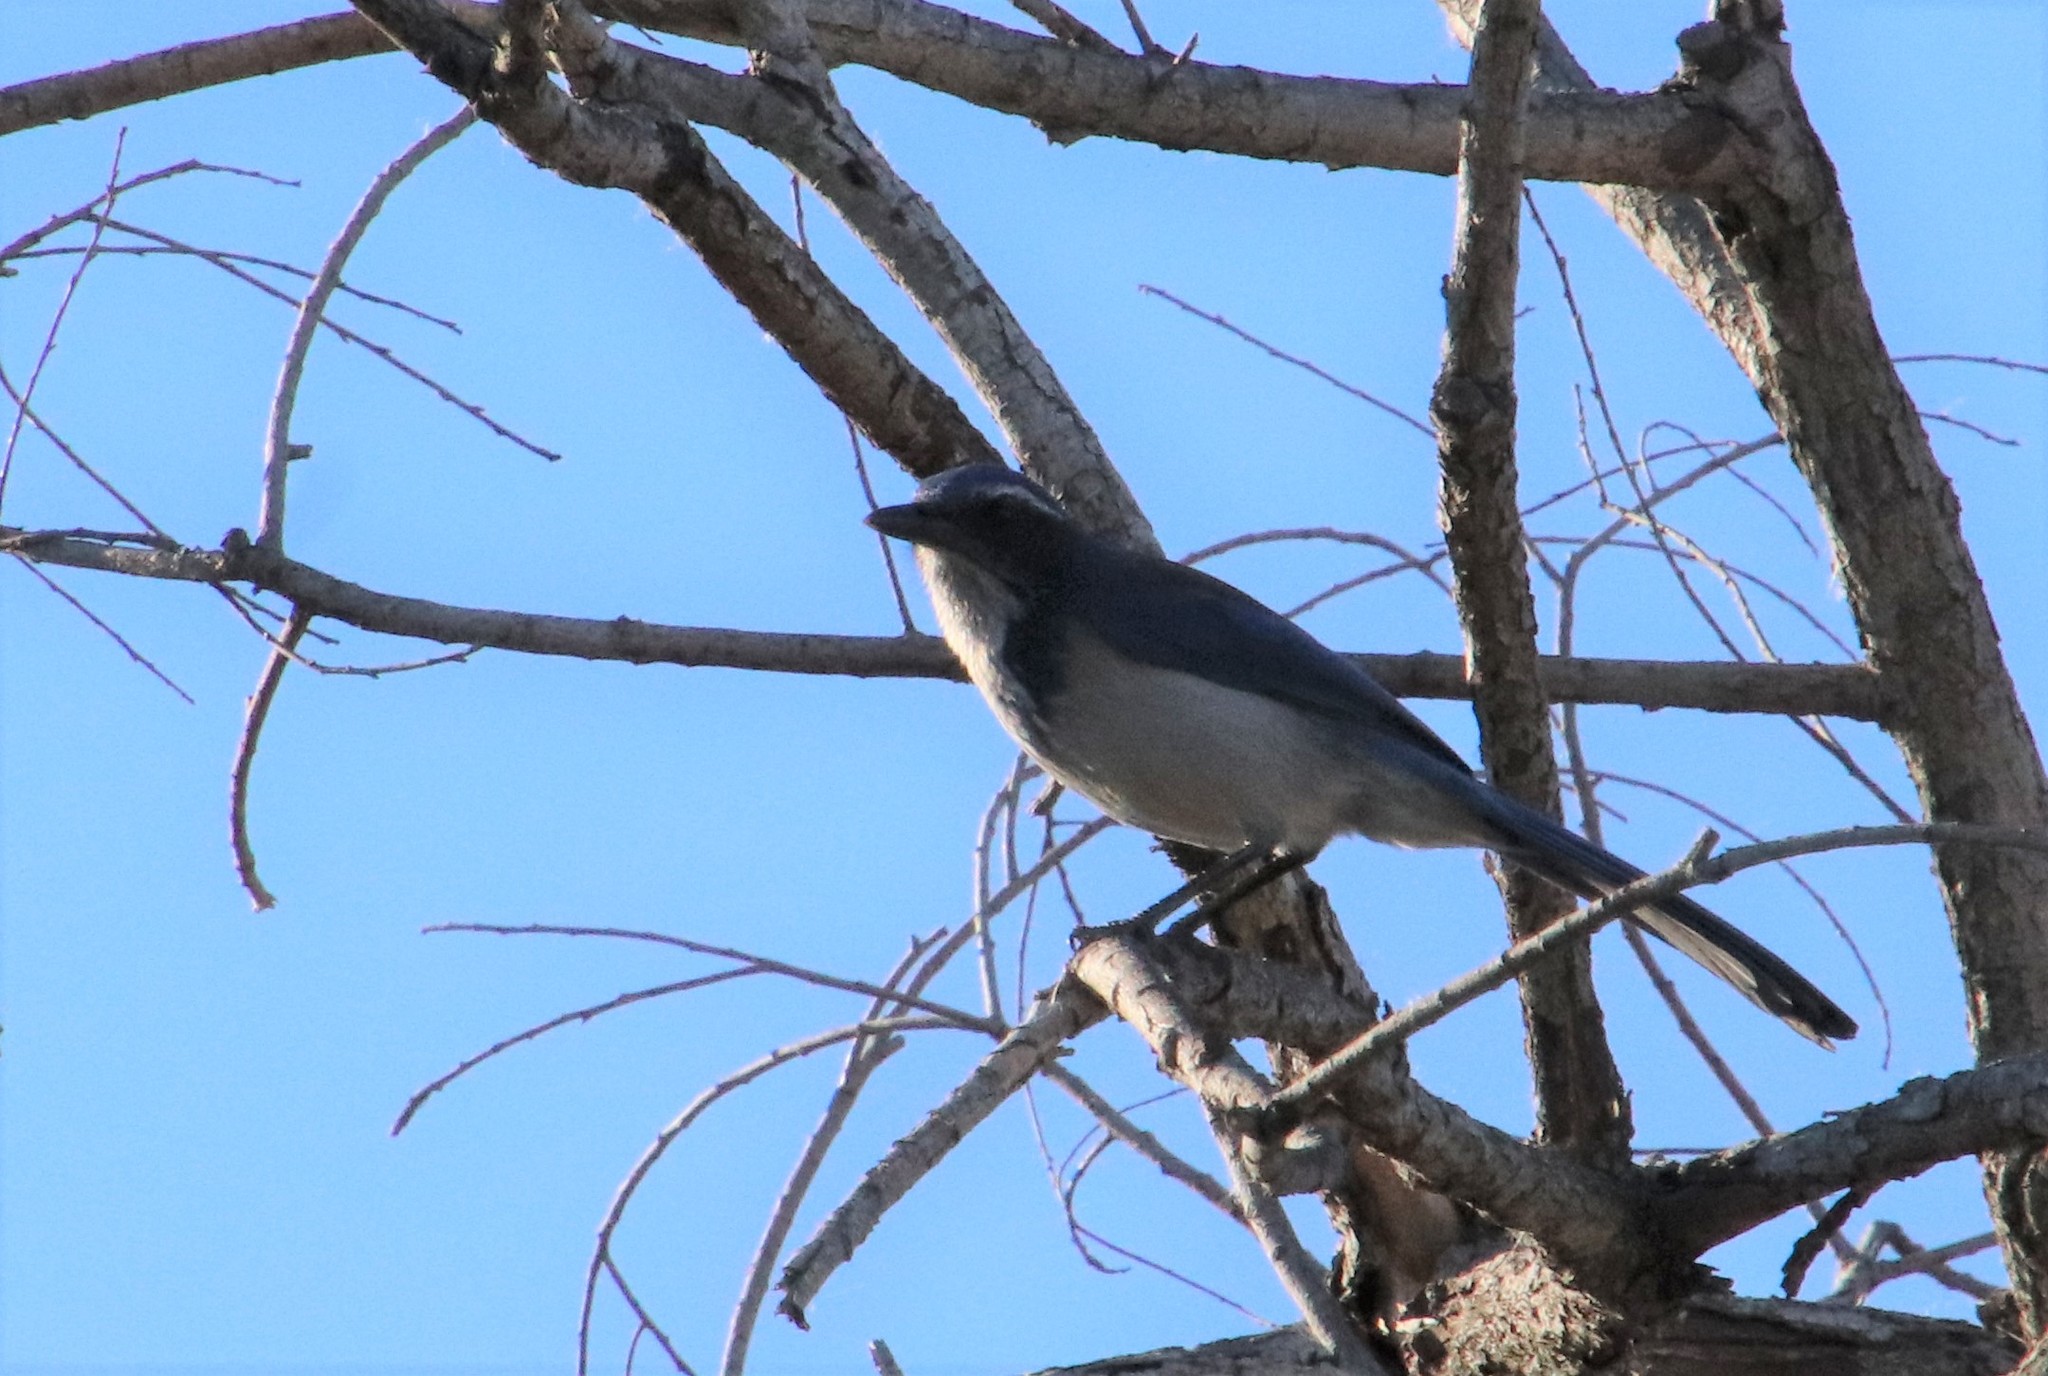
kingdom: Animalia
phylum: Chordata
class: Aves
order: Passeriformes
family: Corvidae
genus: Aphelocoma
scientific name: Aphelocoma californica
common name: California scrub-jay
